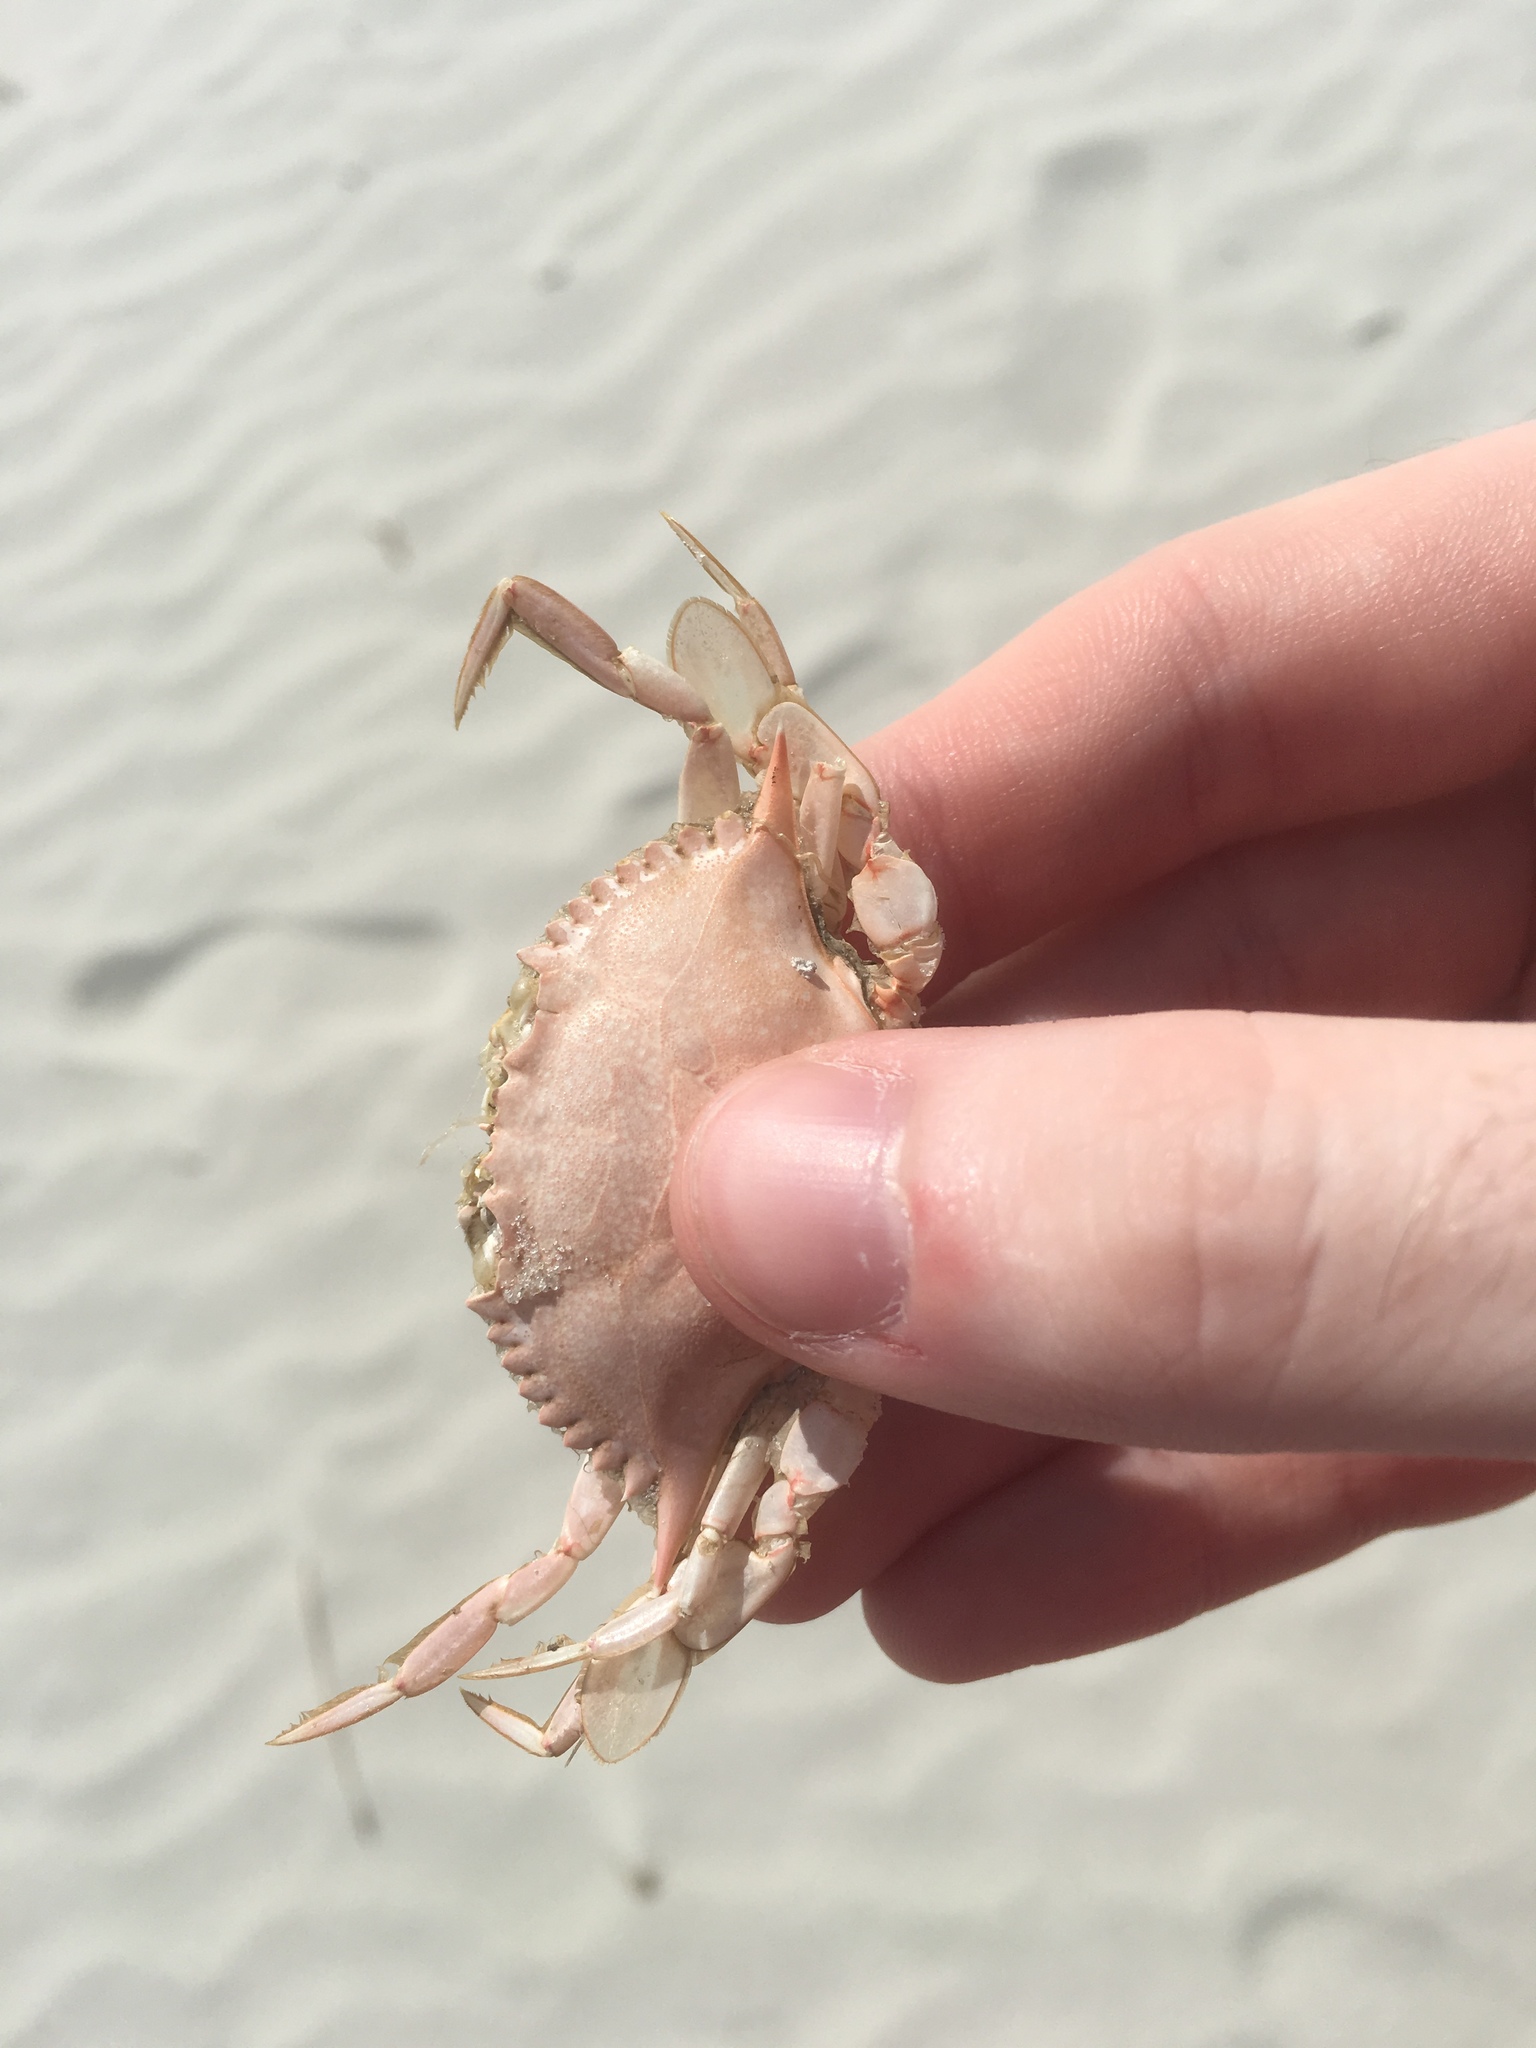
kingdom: Animalia
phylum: Arthropoda
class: Malacostraca
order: Decapoda
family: Portunidae
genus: Arenaeus
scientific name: Arenaeus cribrarius
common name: Speckled crab
